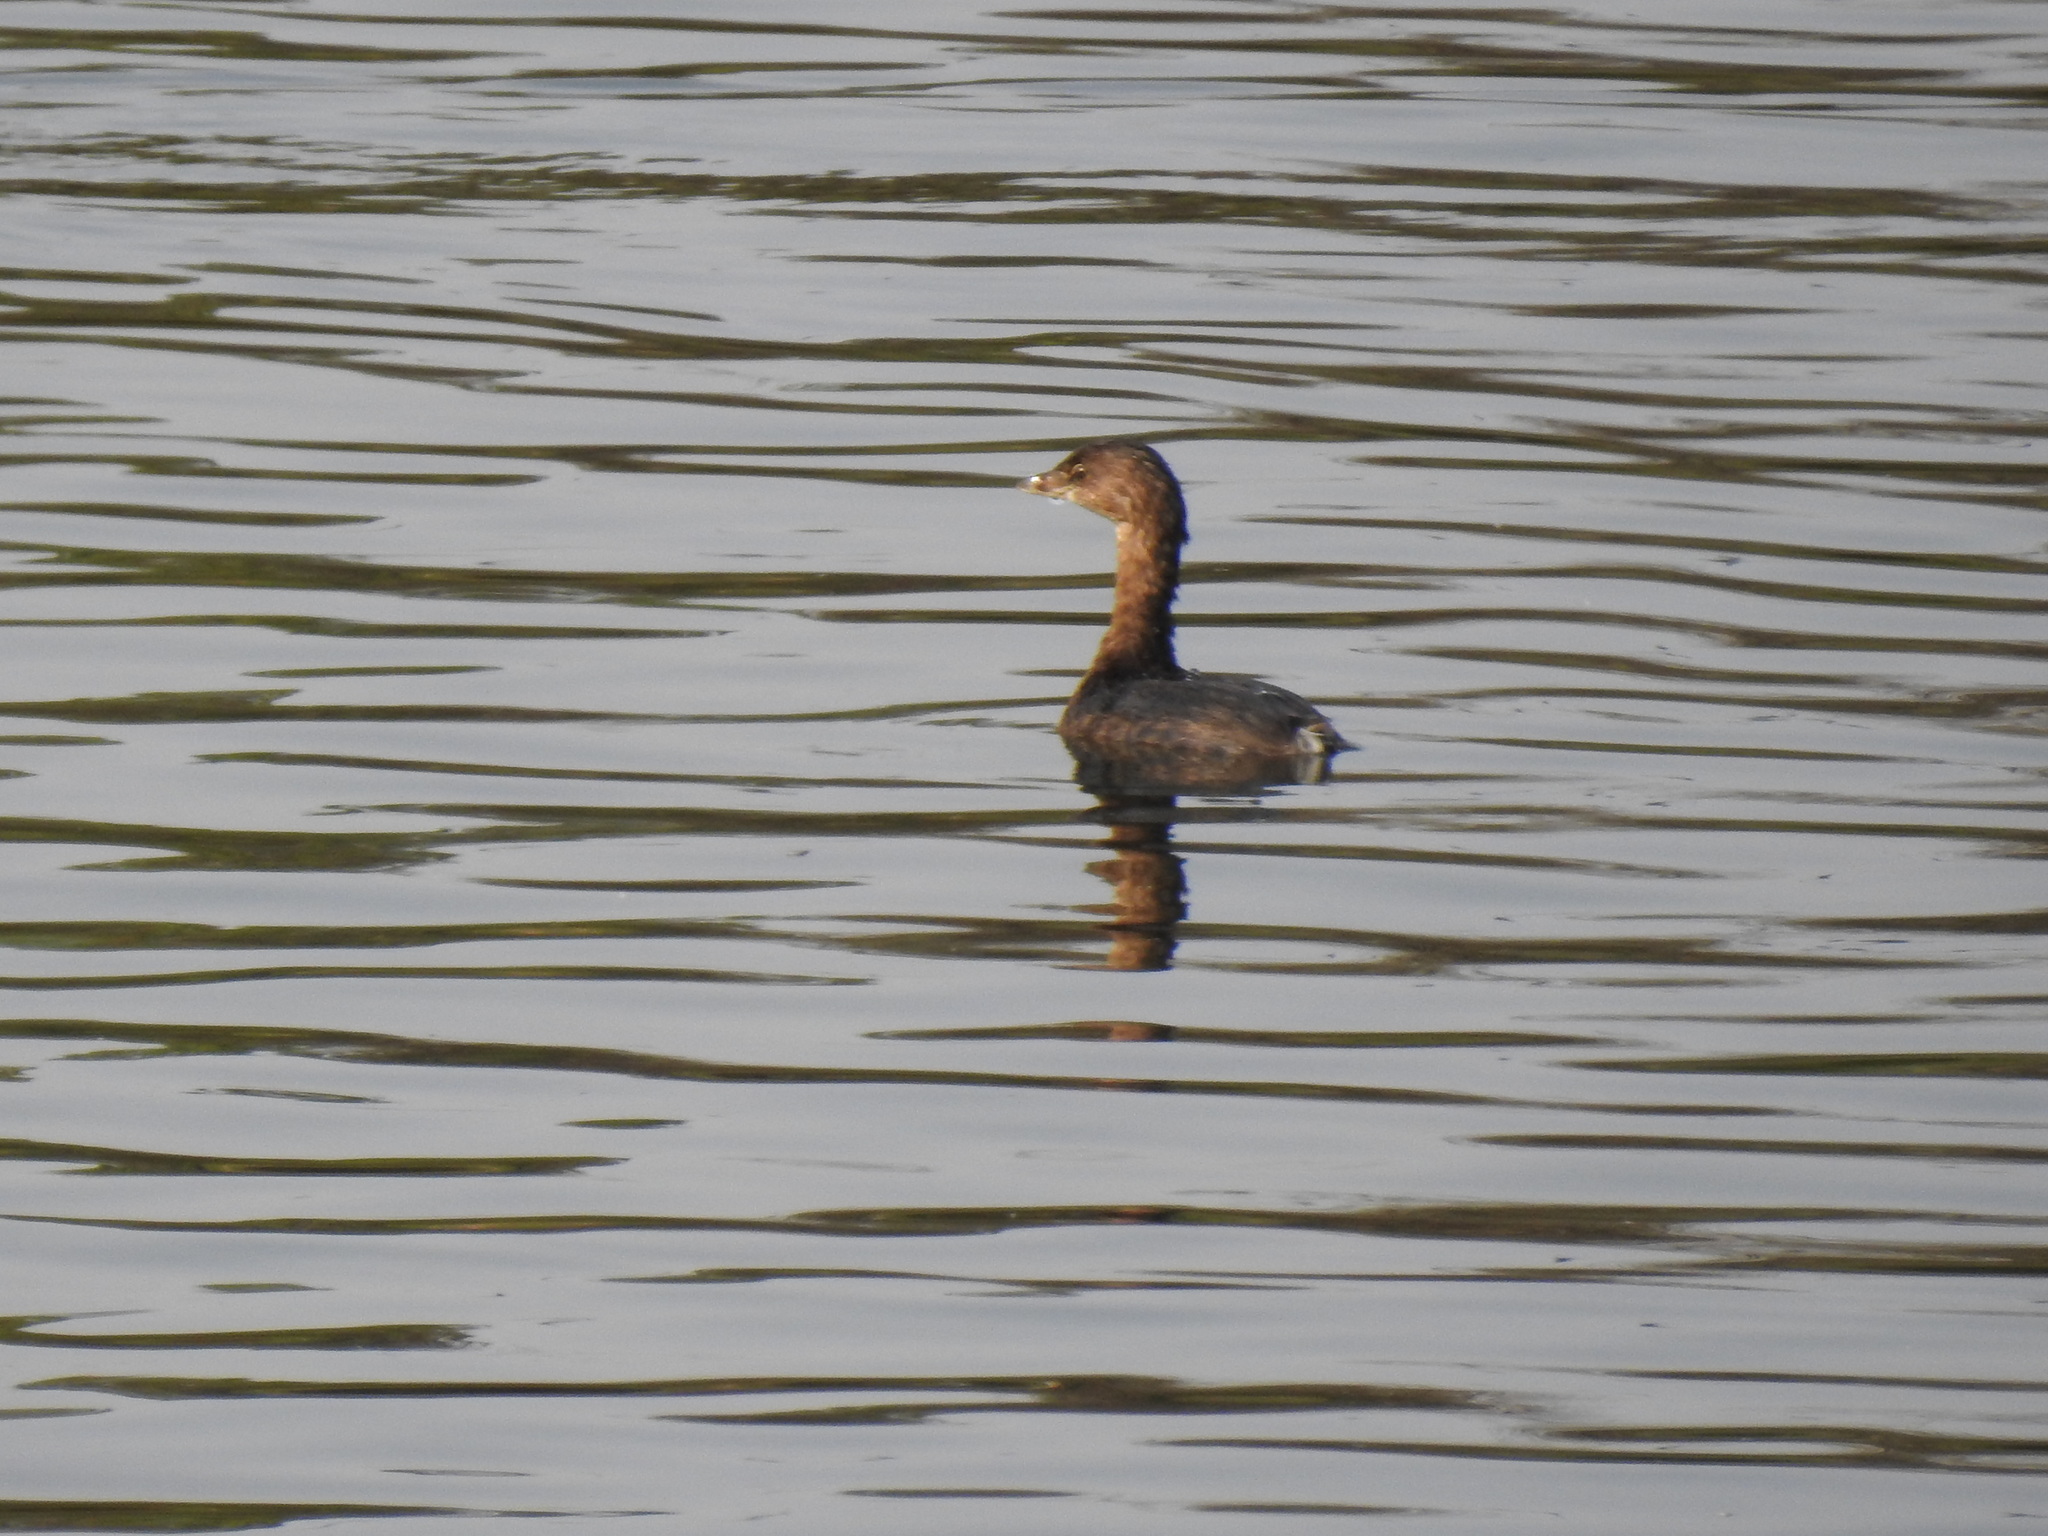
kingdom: Animalia
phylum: Chordata
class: Aves
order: Podicipediformes
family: Podicipedidae
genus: Podilymbus
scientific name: Podilymbus podiceps
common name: Pied-billed grebe
